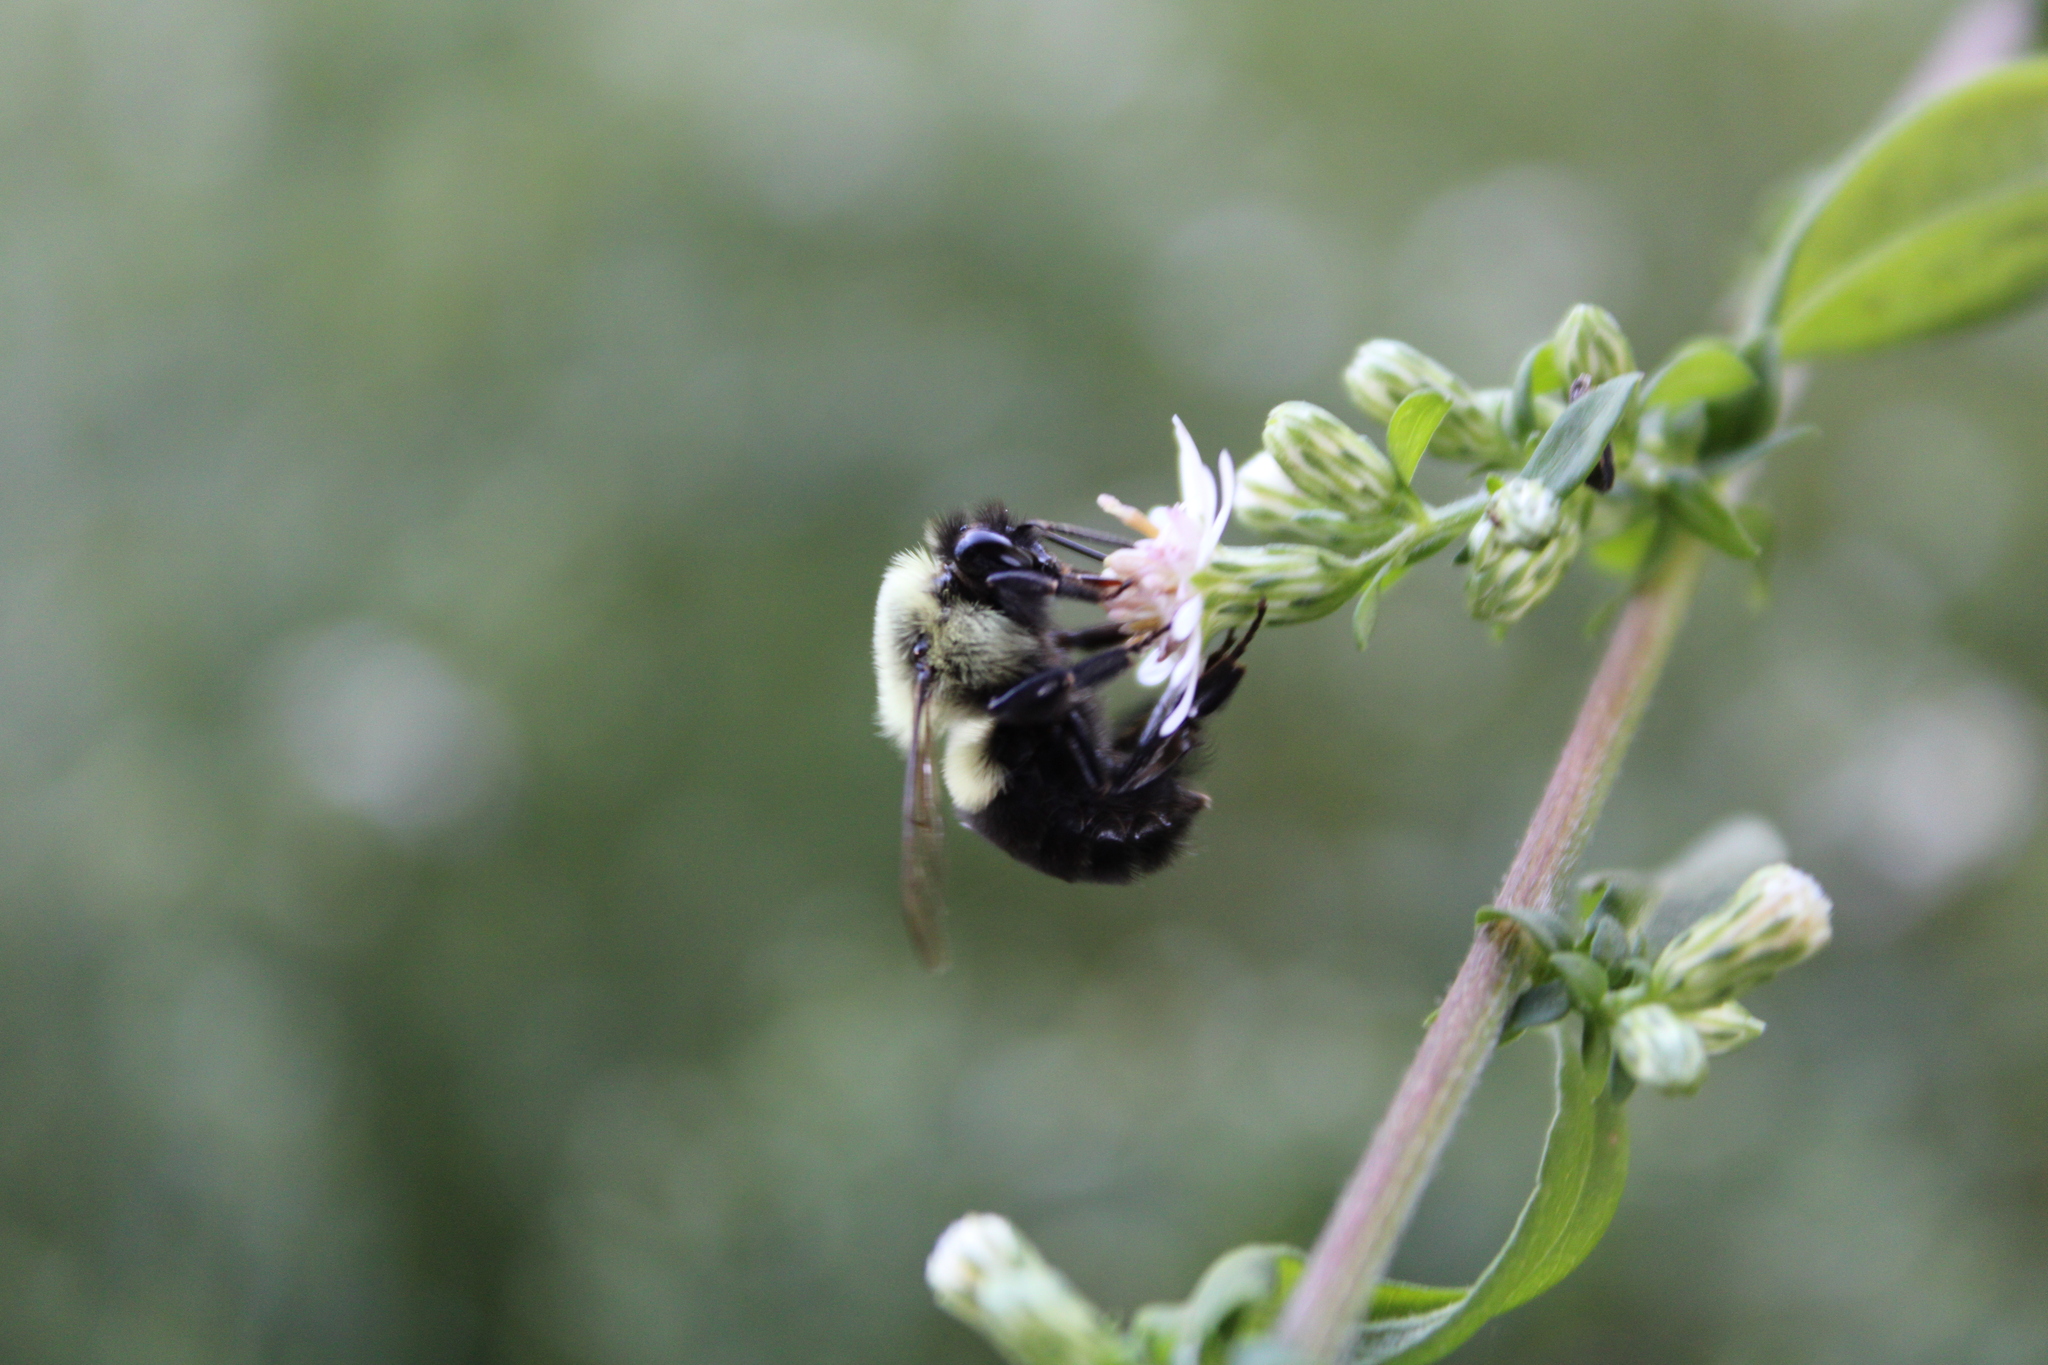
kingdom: Animalia
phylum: Arthropoda
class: Insecta
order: Hymenoptera
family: Apidae
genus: Bombus
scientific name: Bombus impatiens
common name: Common eastern bumble bee
